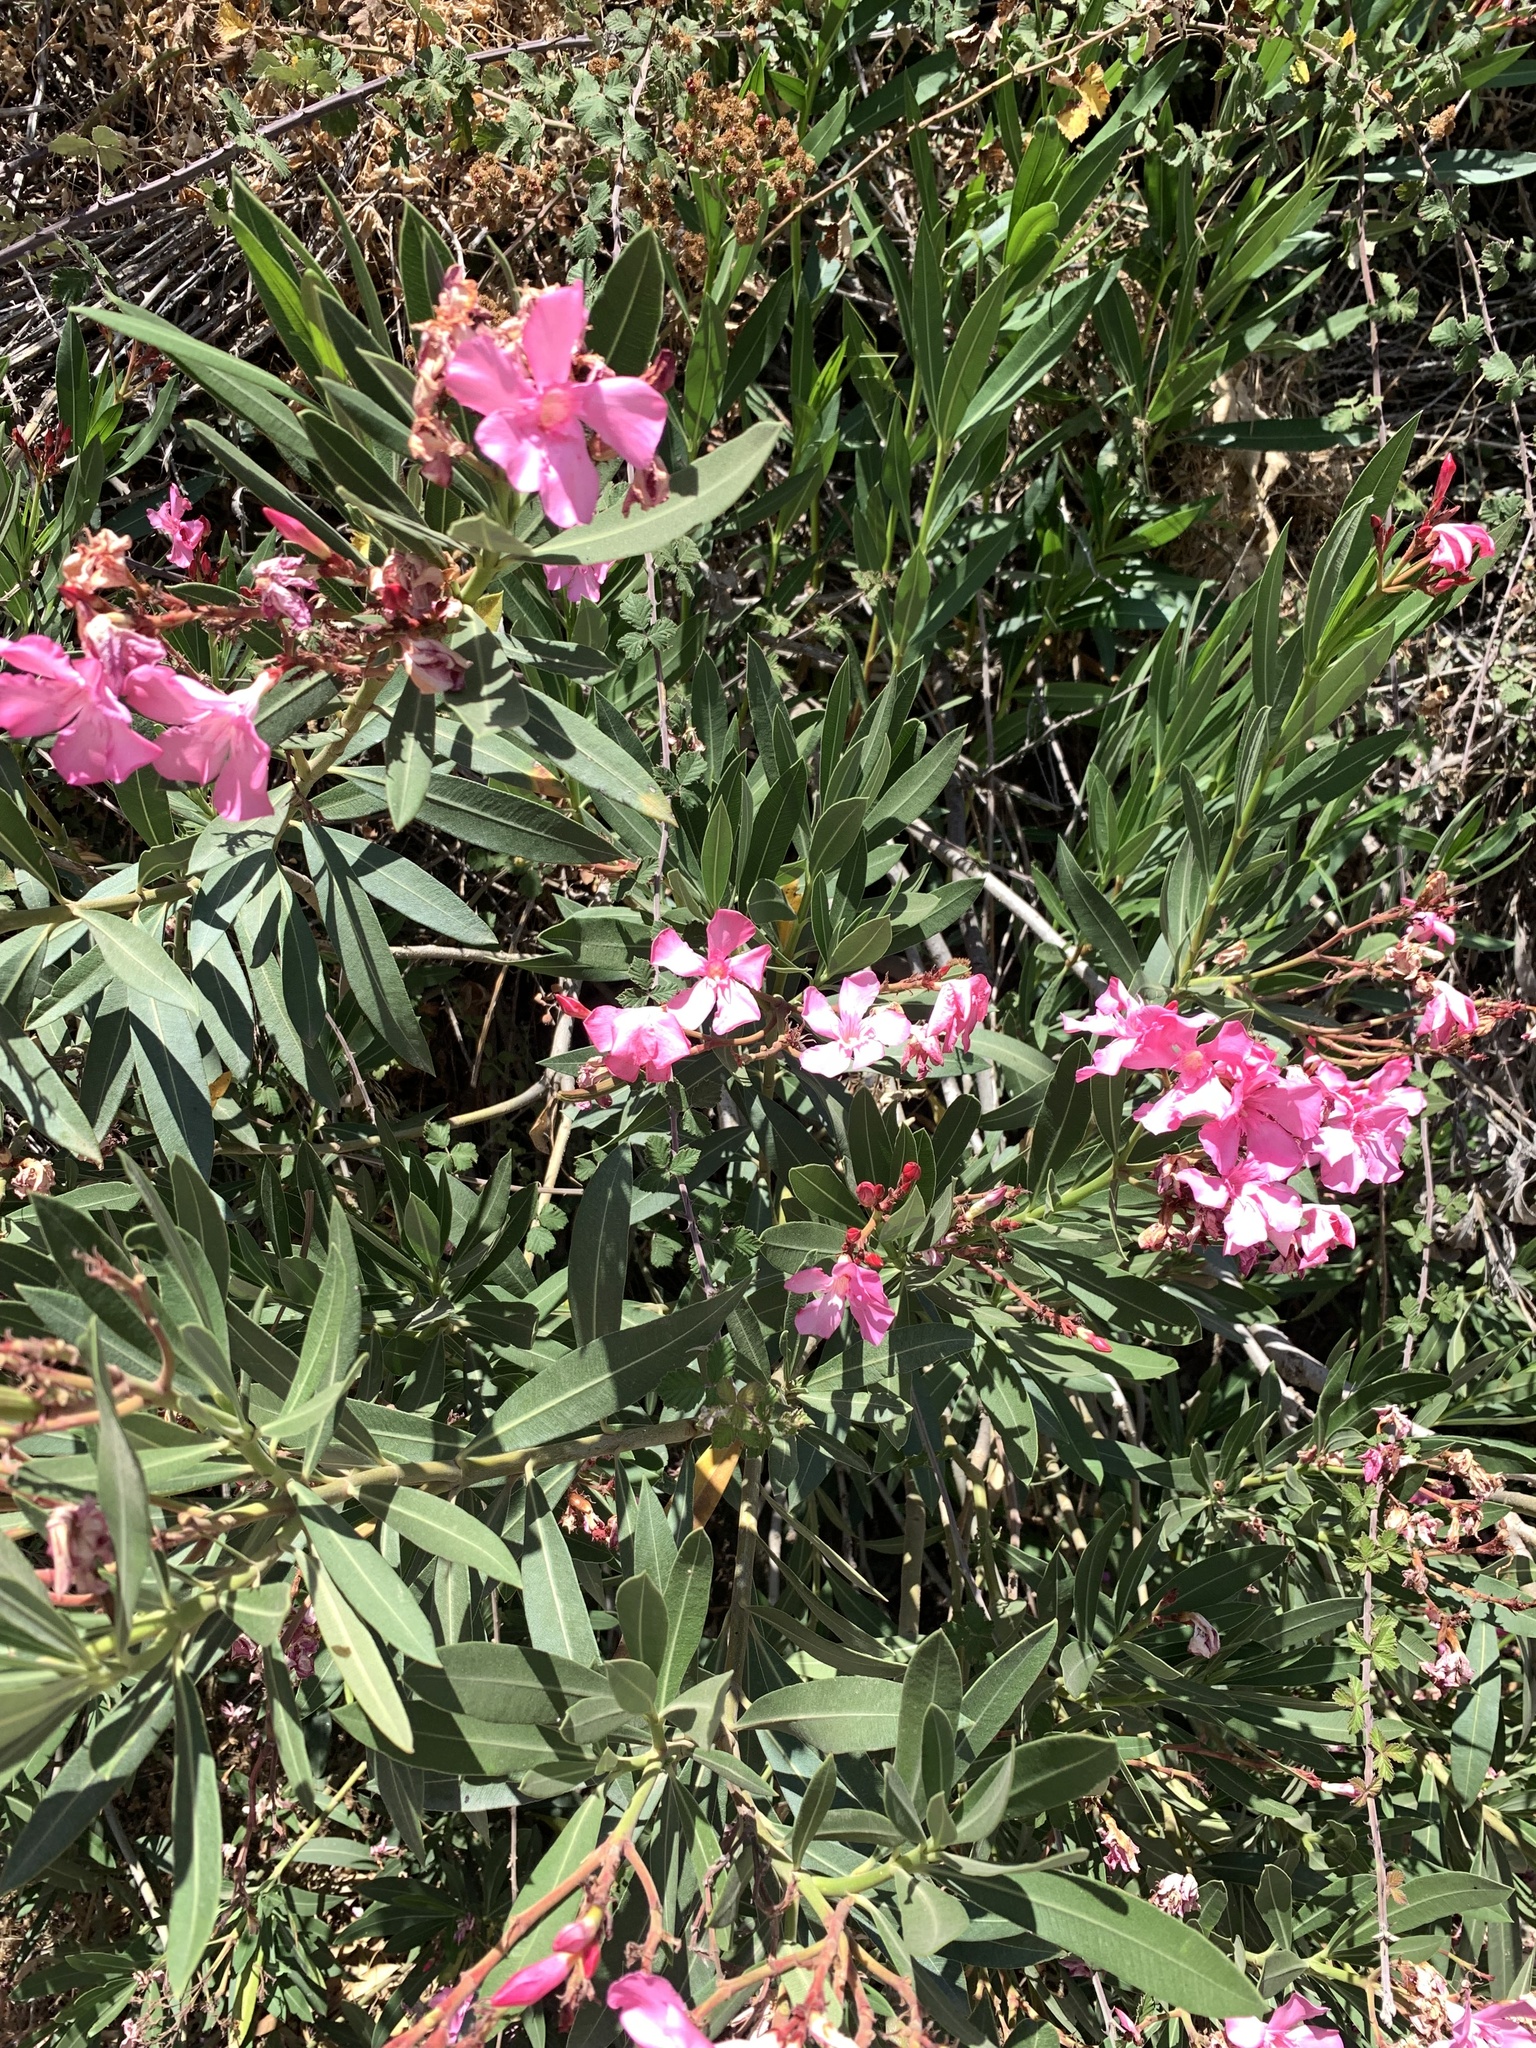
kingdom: Plantae
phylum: Tracheophyta
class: Magnoliopsida
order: Gentianales
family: Apocynaceae
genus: Nerium
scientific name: Nerium oleander
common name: Oleander
